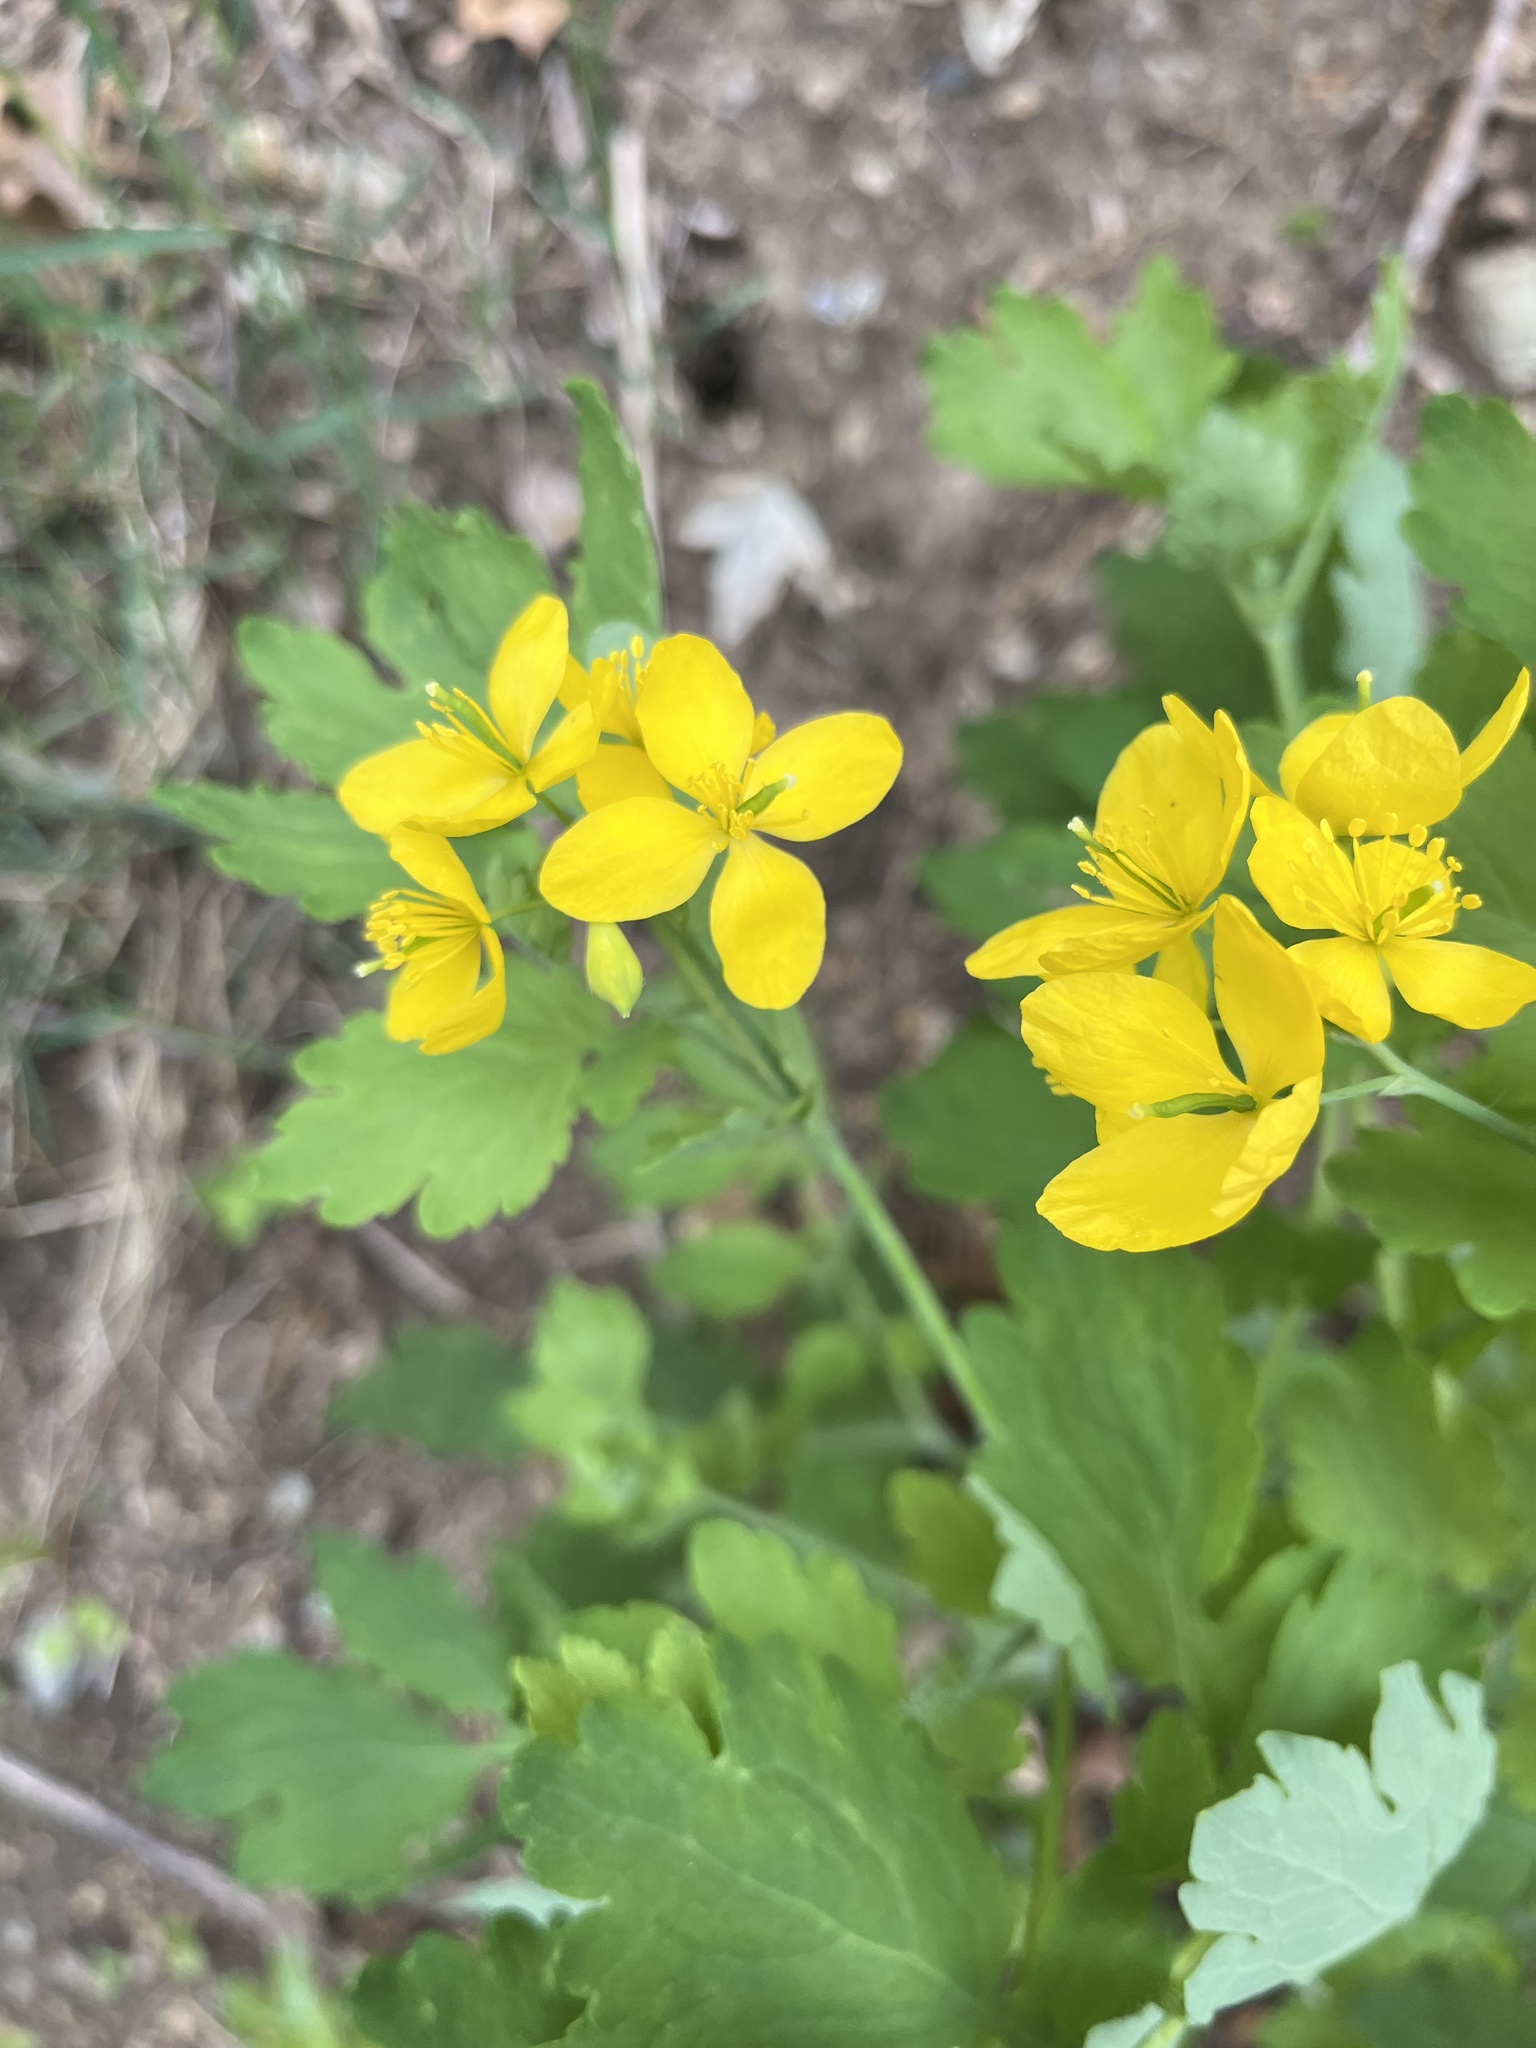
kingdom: Plantae
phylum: Tracheophyta
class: Magnoliopsida
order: Ranunculales
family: Papaveraceae
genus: Chelidonium
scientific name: Chelidonium majus
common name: Greater celandine
